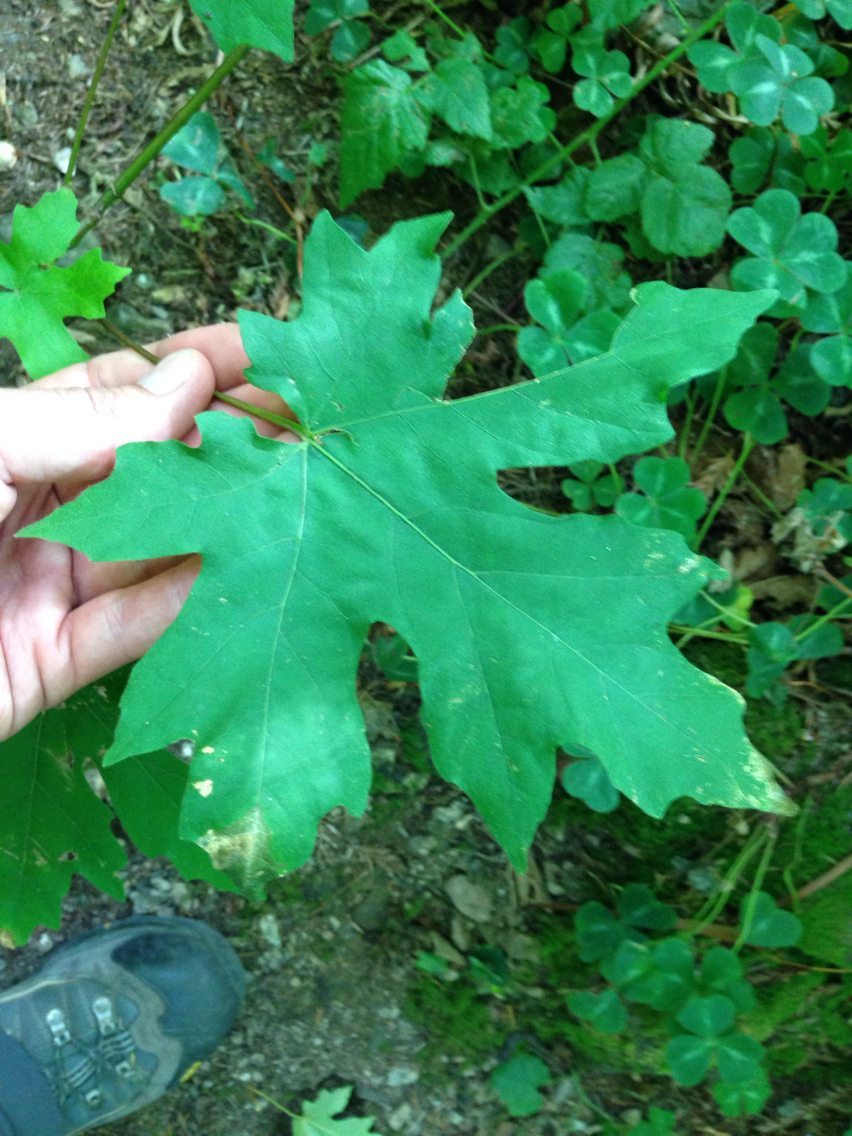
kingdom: Plantae
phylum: Tracheophyta
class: Magnoliopsida
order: Sapindales
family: Sapindaceae
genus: Acer
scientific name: Acer macrophyllum
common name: Oregon maple
